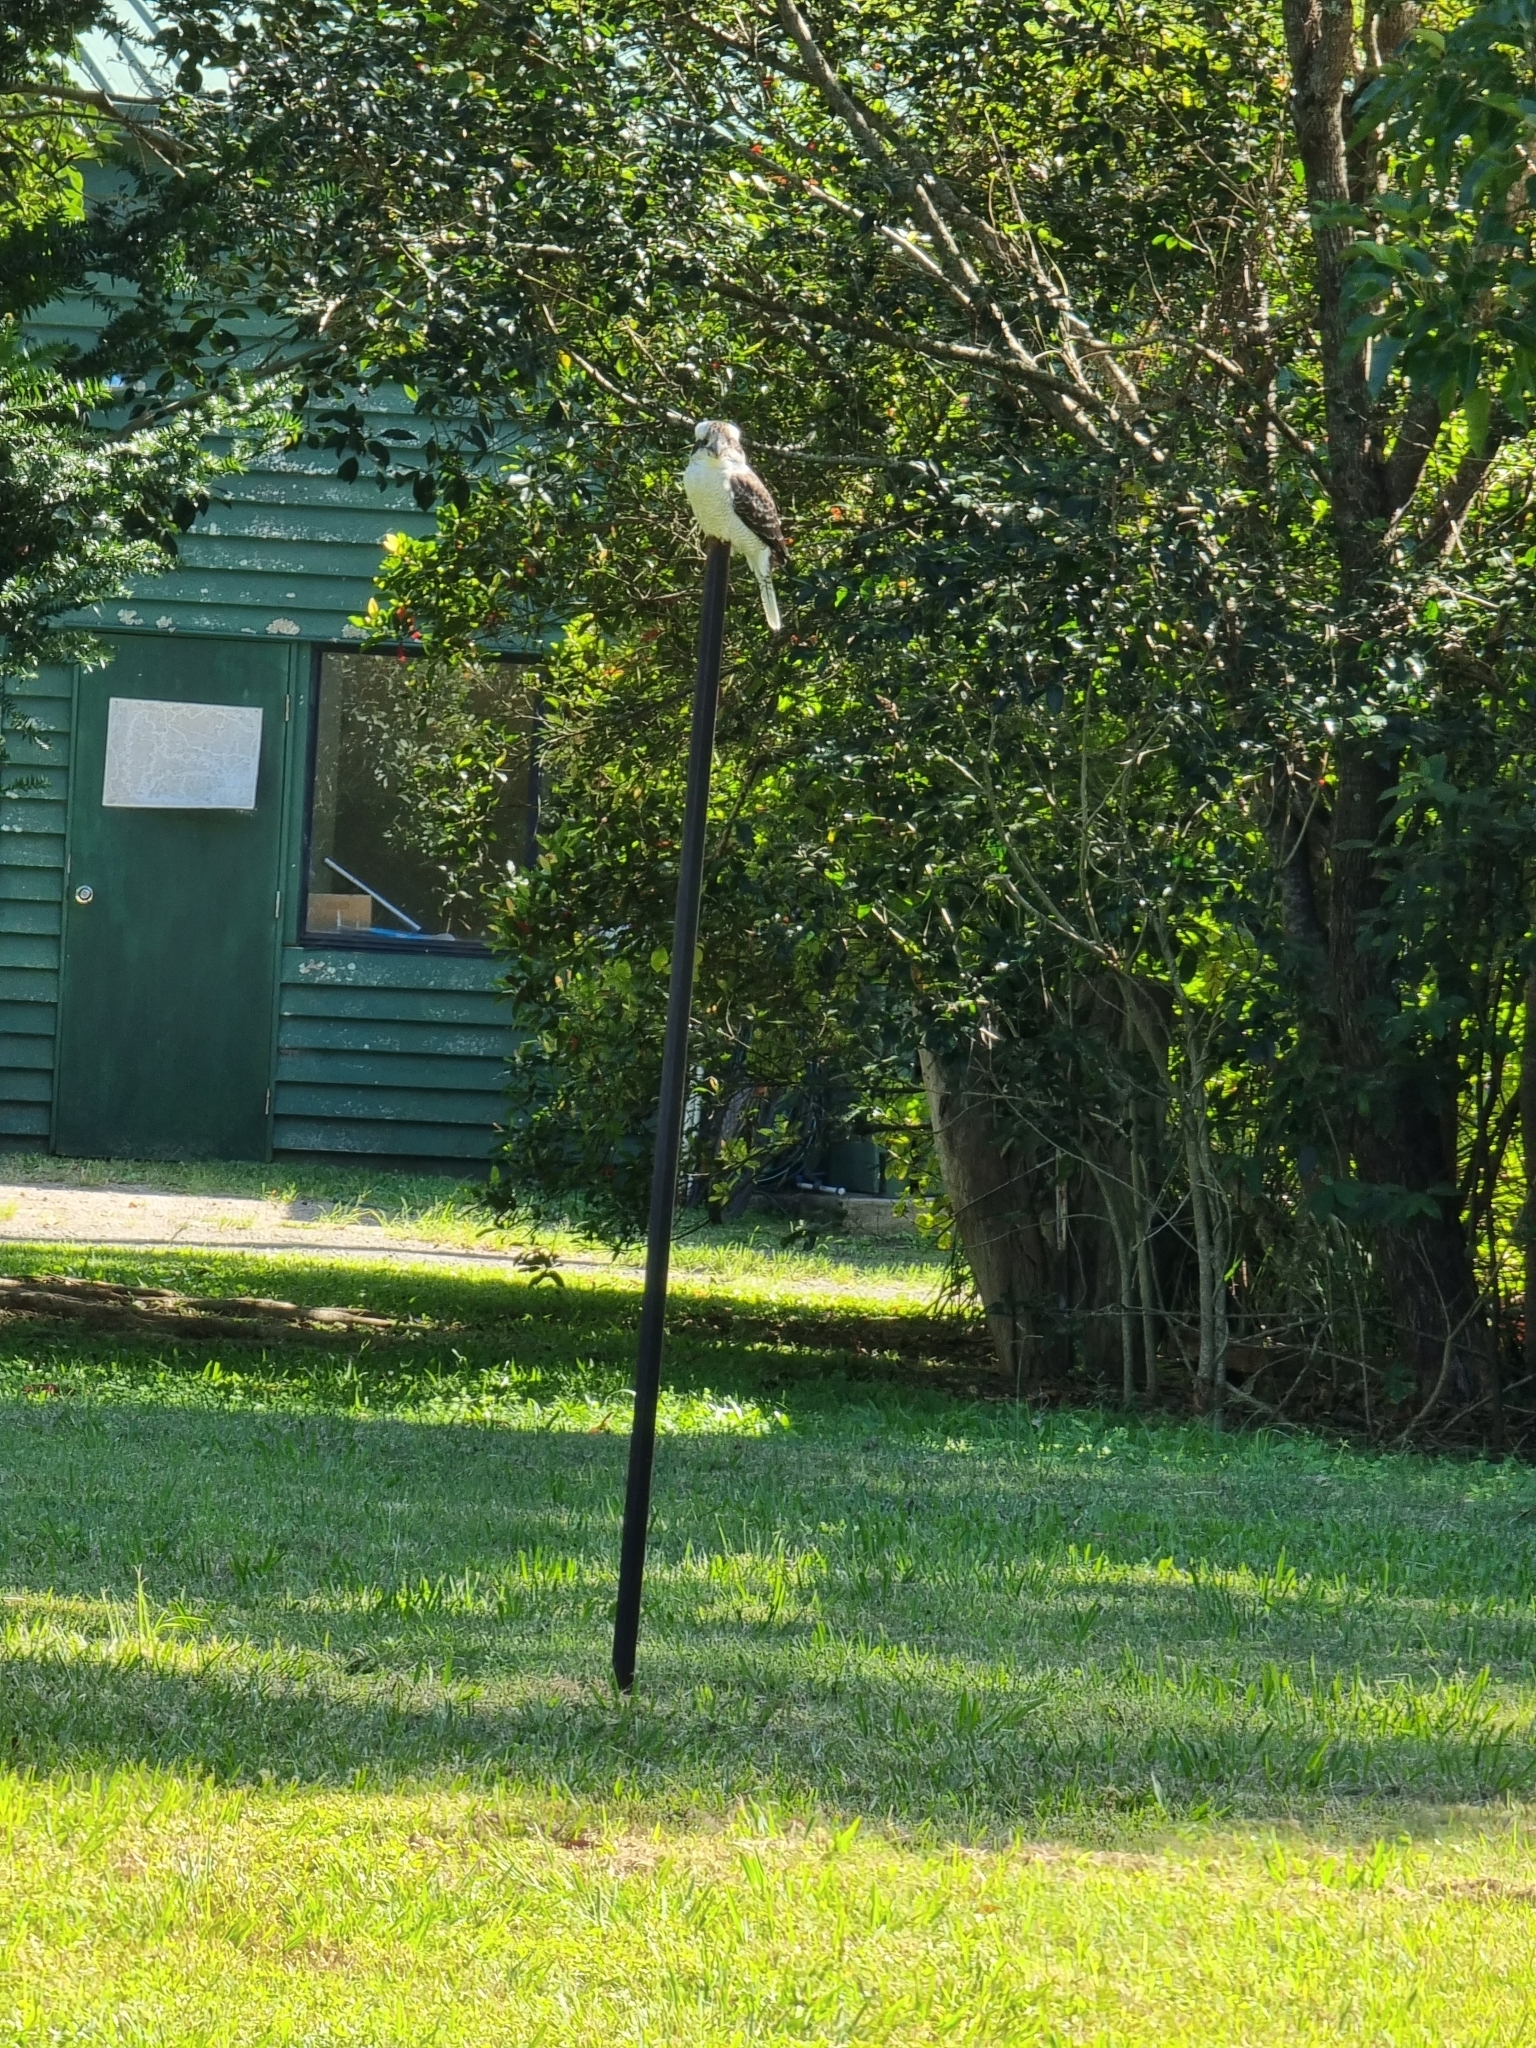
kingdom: Animalia
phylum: Chordata
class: Aves
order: Coraciiformes
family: Alcedinidae
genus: Dacelo
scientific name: Dacelo novaeguineae
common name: Laughing kookaburra
